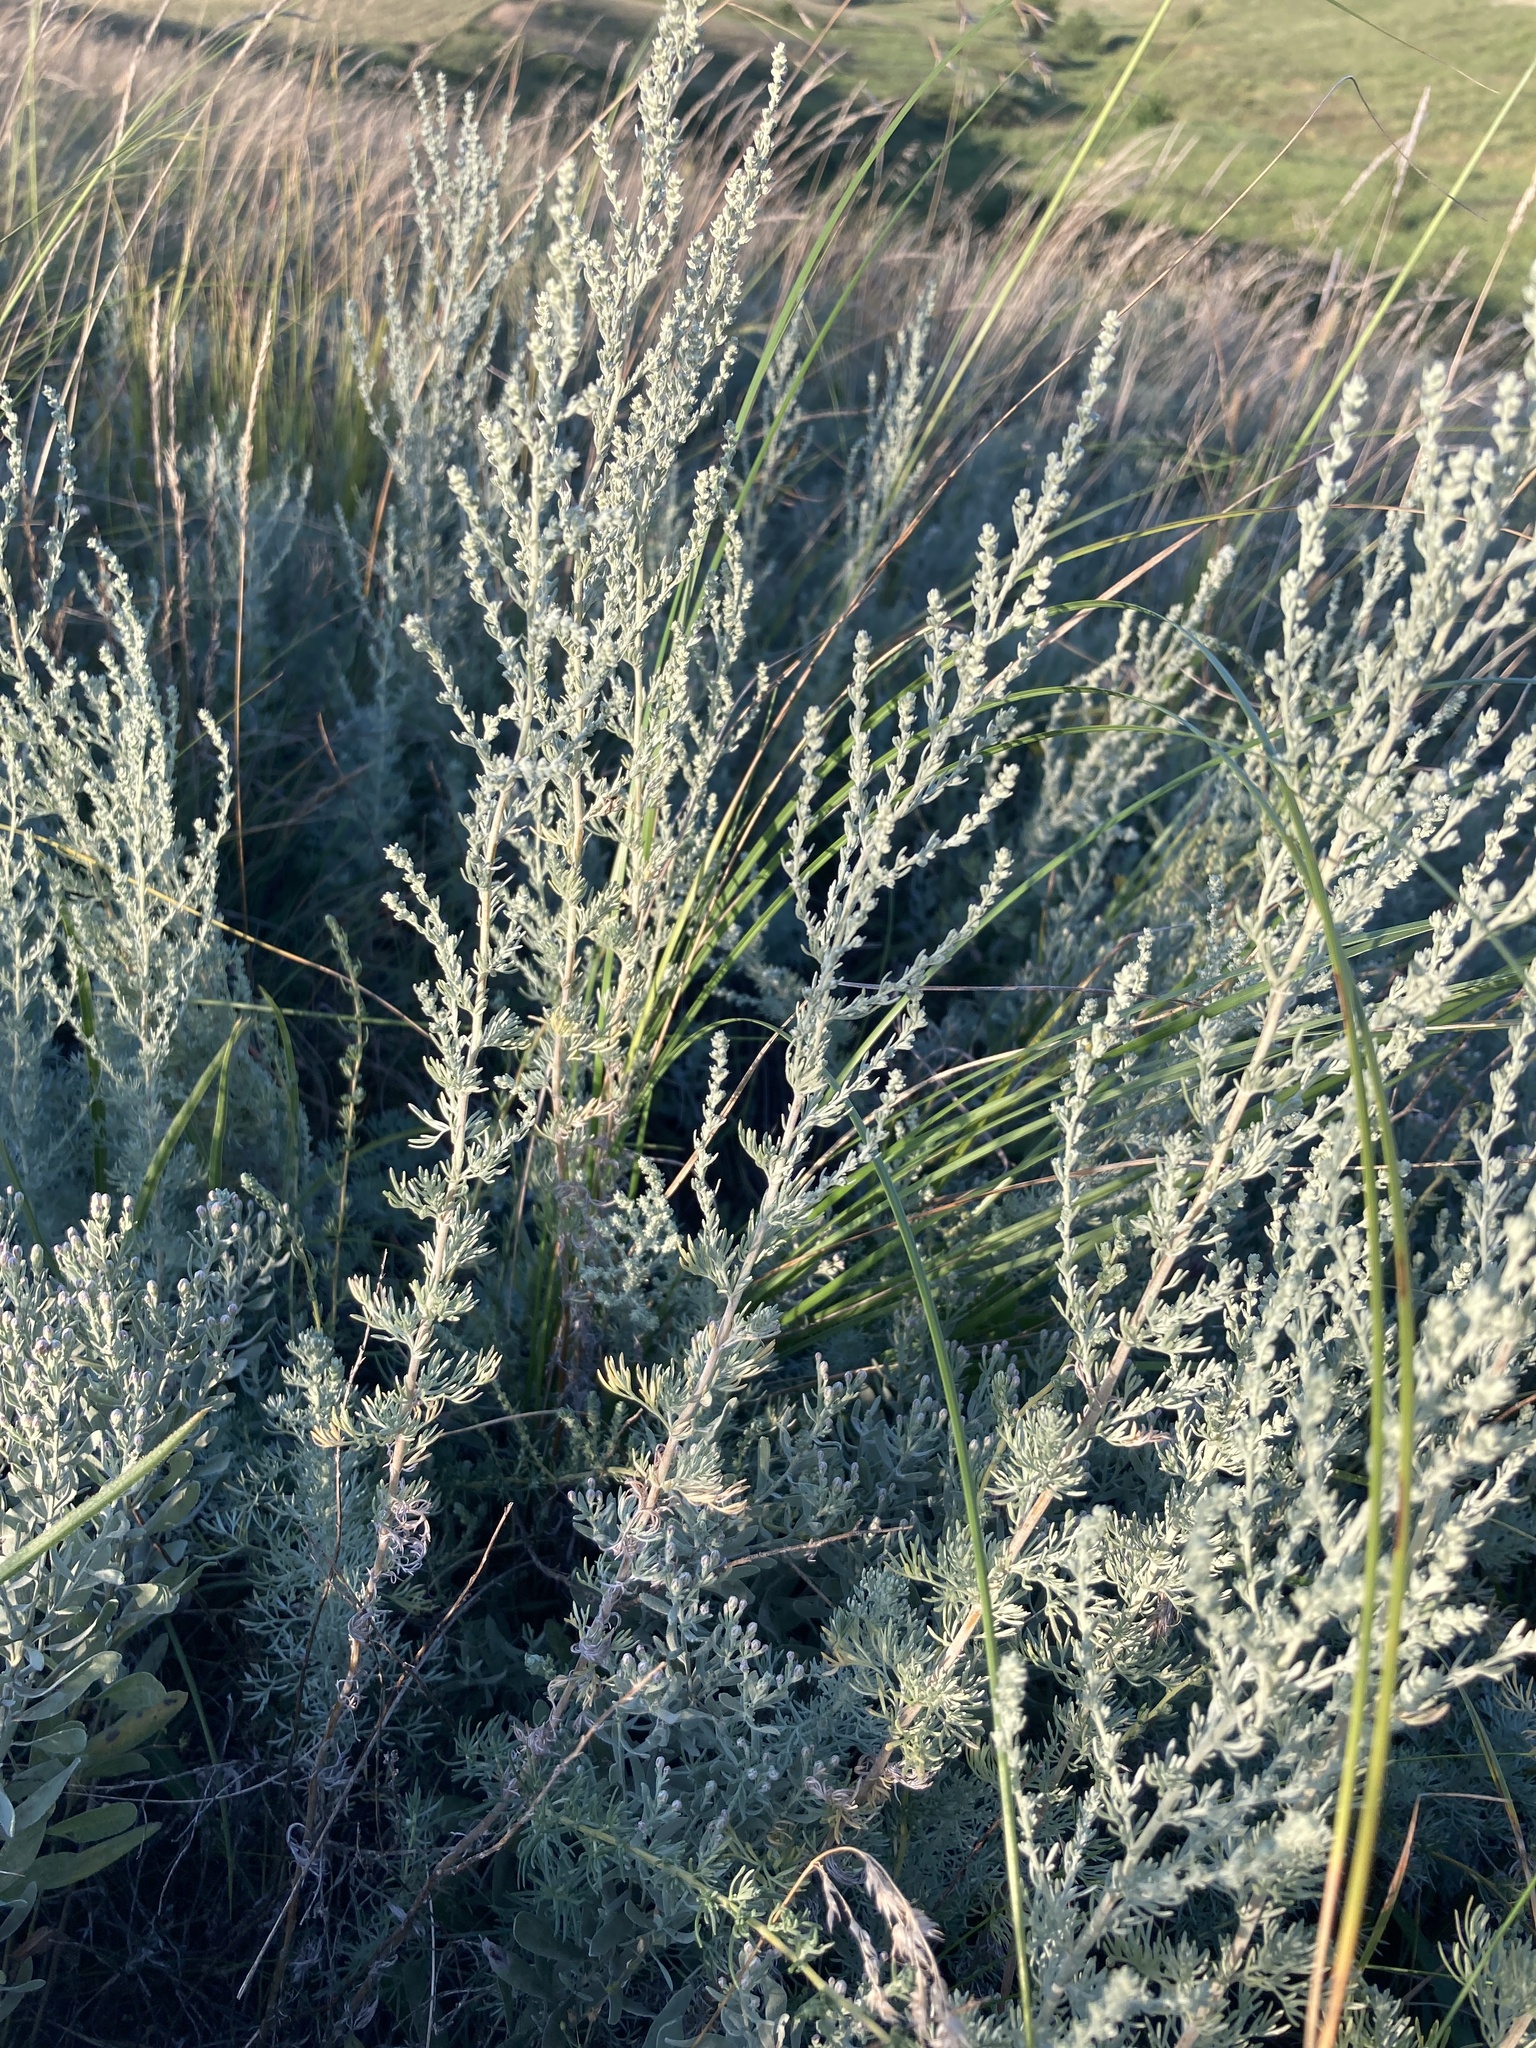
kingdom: Plantae
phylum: Tracheophyta
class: Magnoliopsida
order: Asterales
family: Asteraceae
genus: Artemisia
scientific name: Artemisia austriaca
